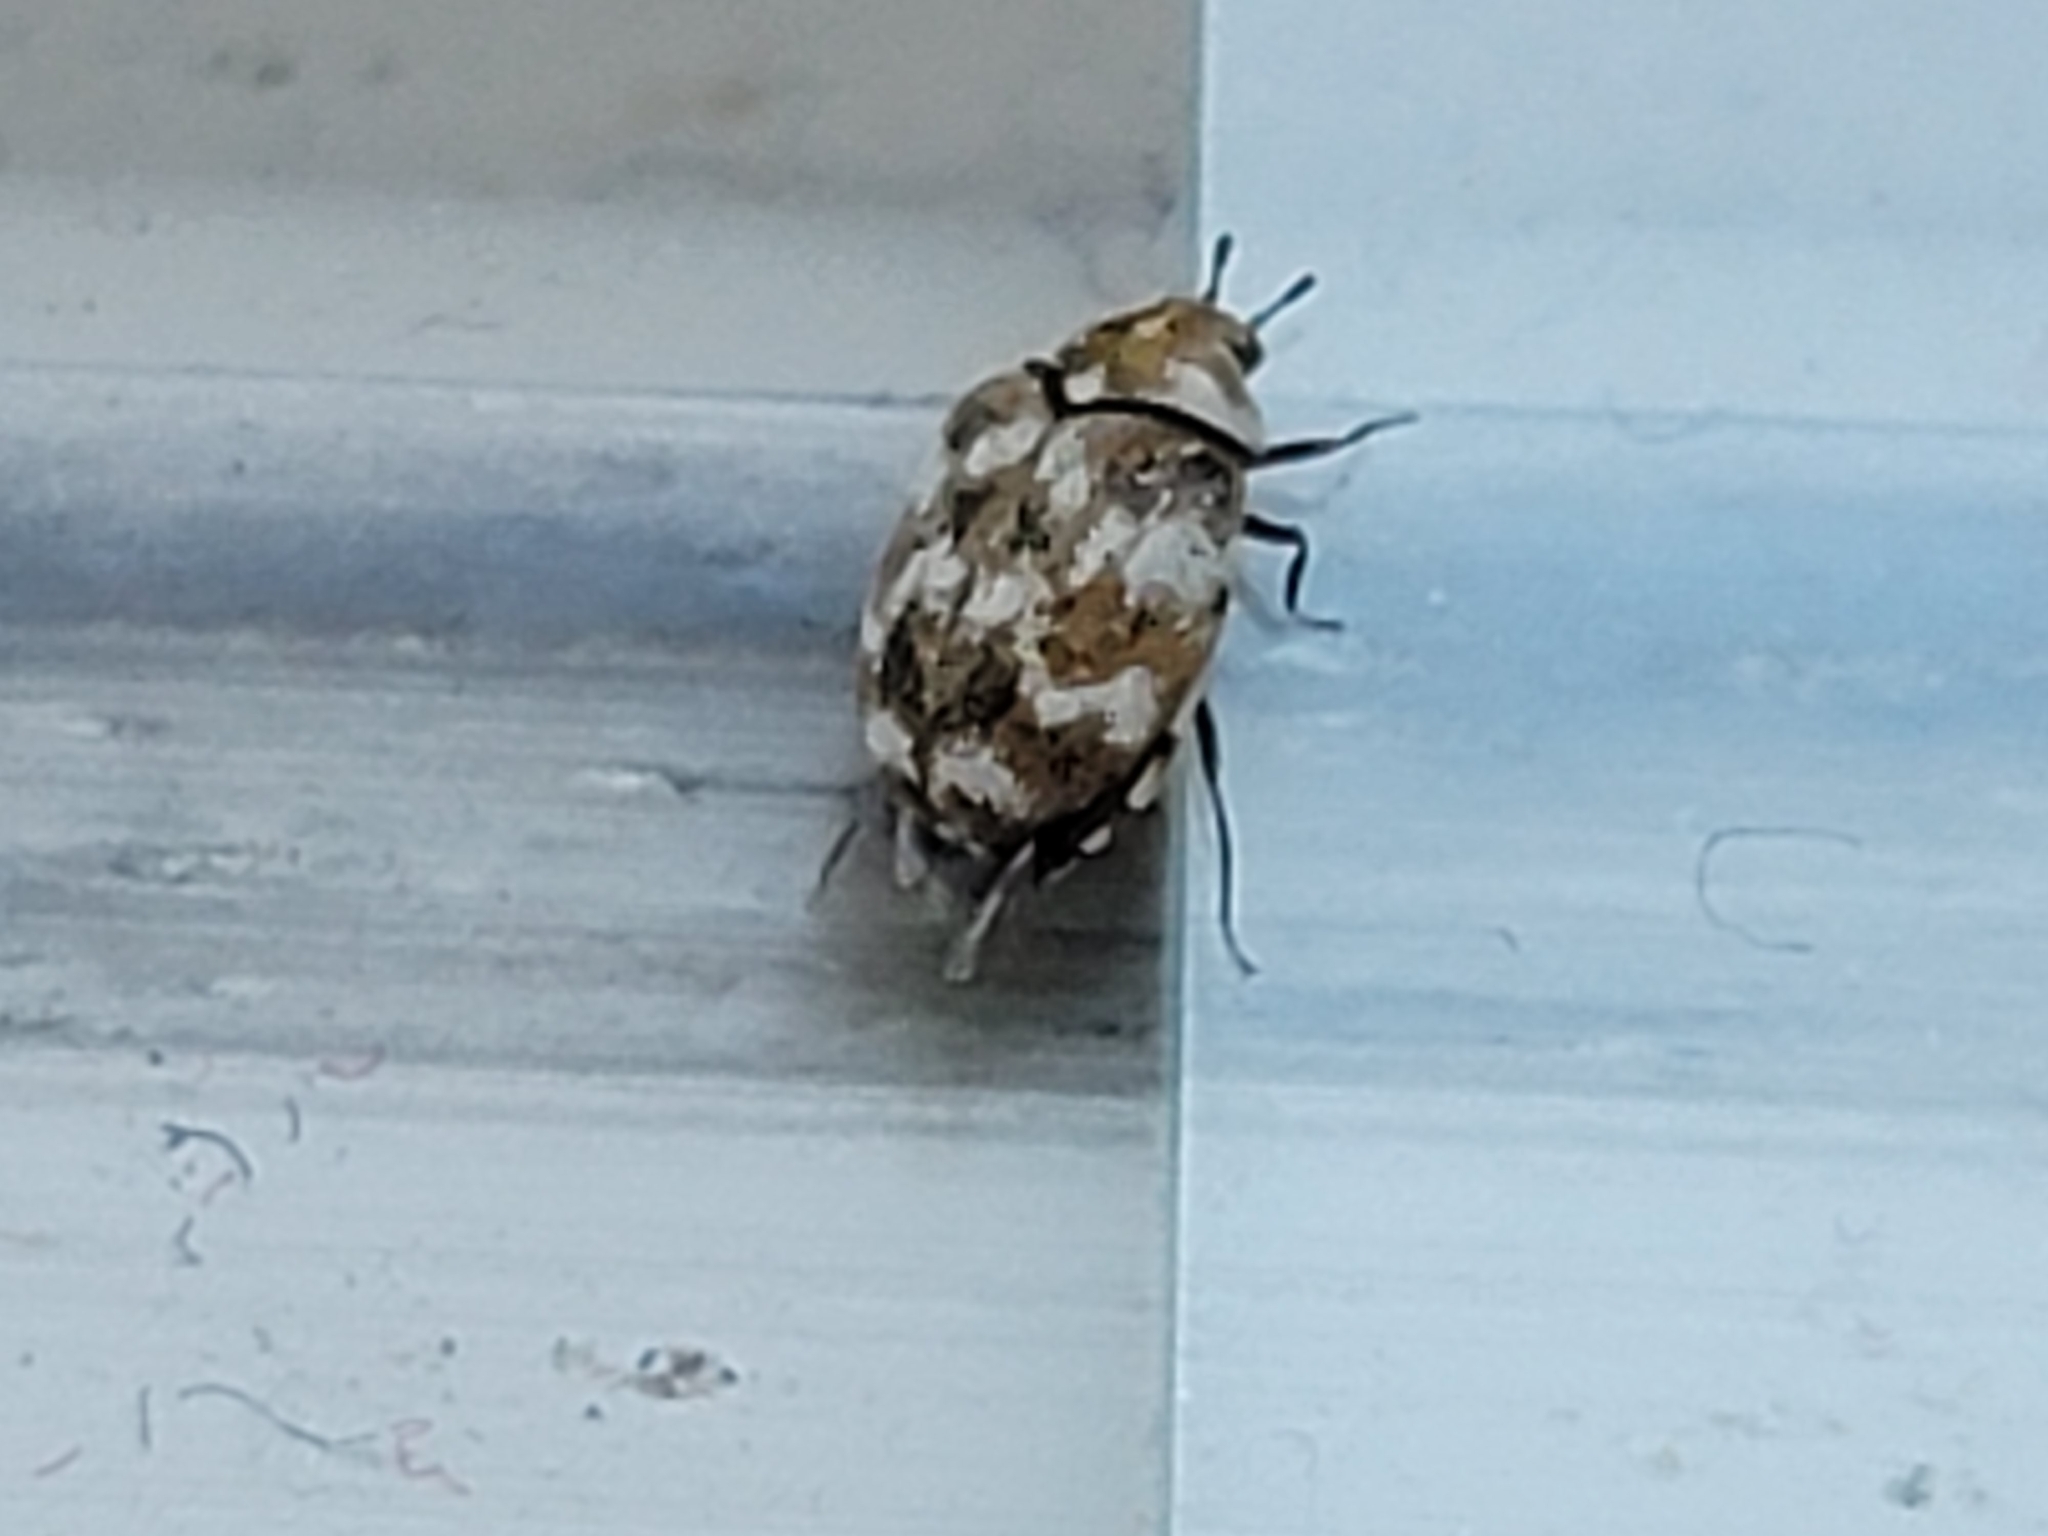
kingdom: Animalia
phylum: Arthropoda
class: Insecta
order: Coleoptera
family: Dermestidae
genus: Anthrenus
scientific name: Anthrenus verbasci
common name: Varied carpet beetle
